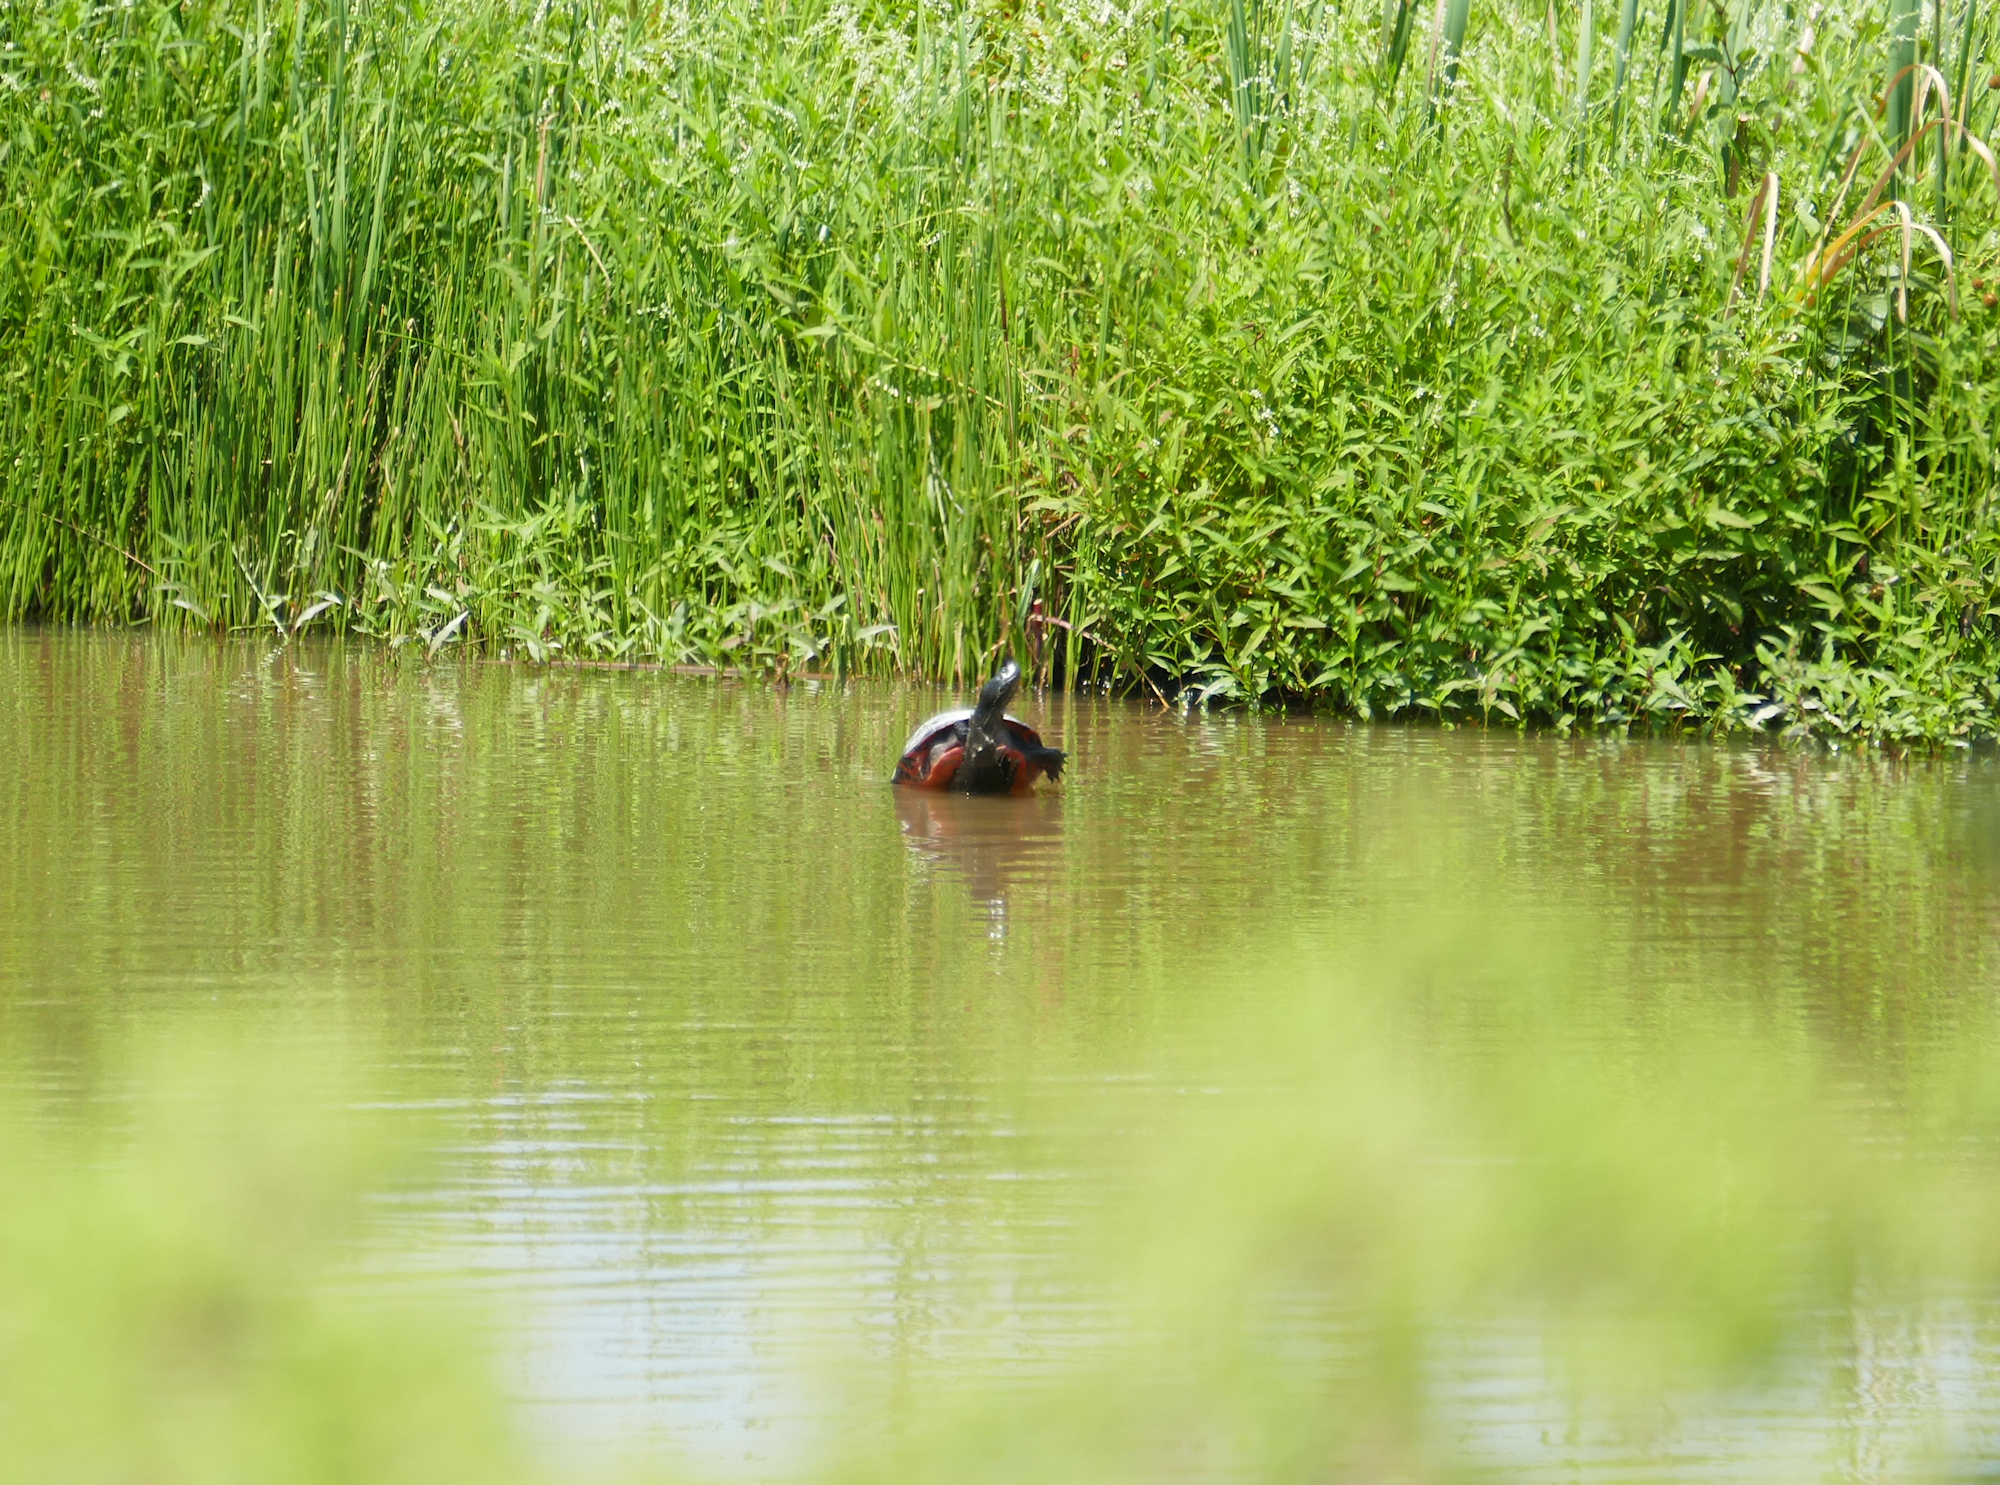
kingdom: Animalia
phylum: Chordata
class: Testudines
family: Emydidae
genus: Pseudemys
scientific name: Pseudemys rubriventris
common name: American red-bellied turtle
